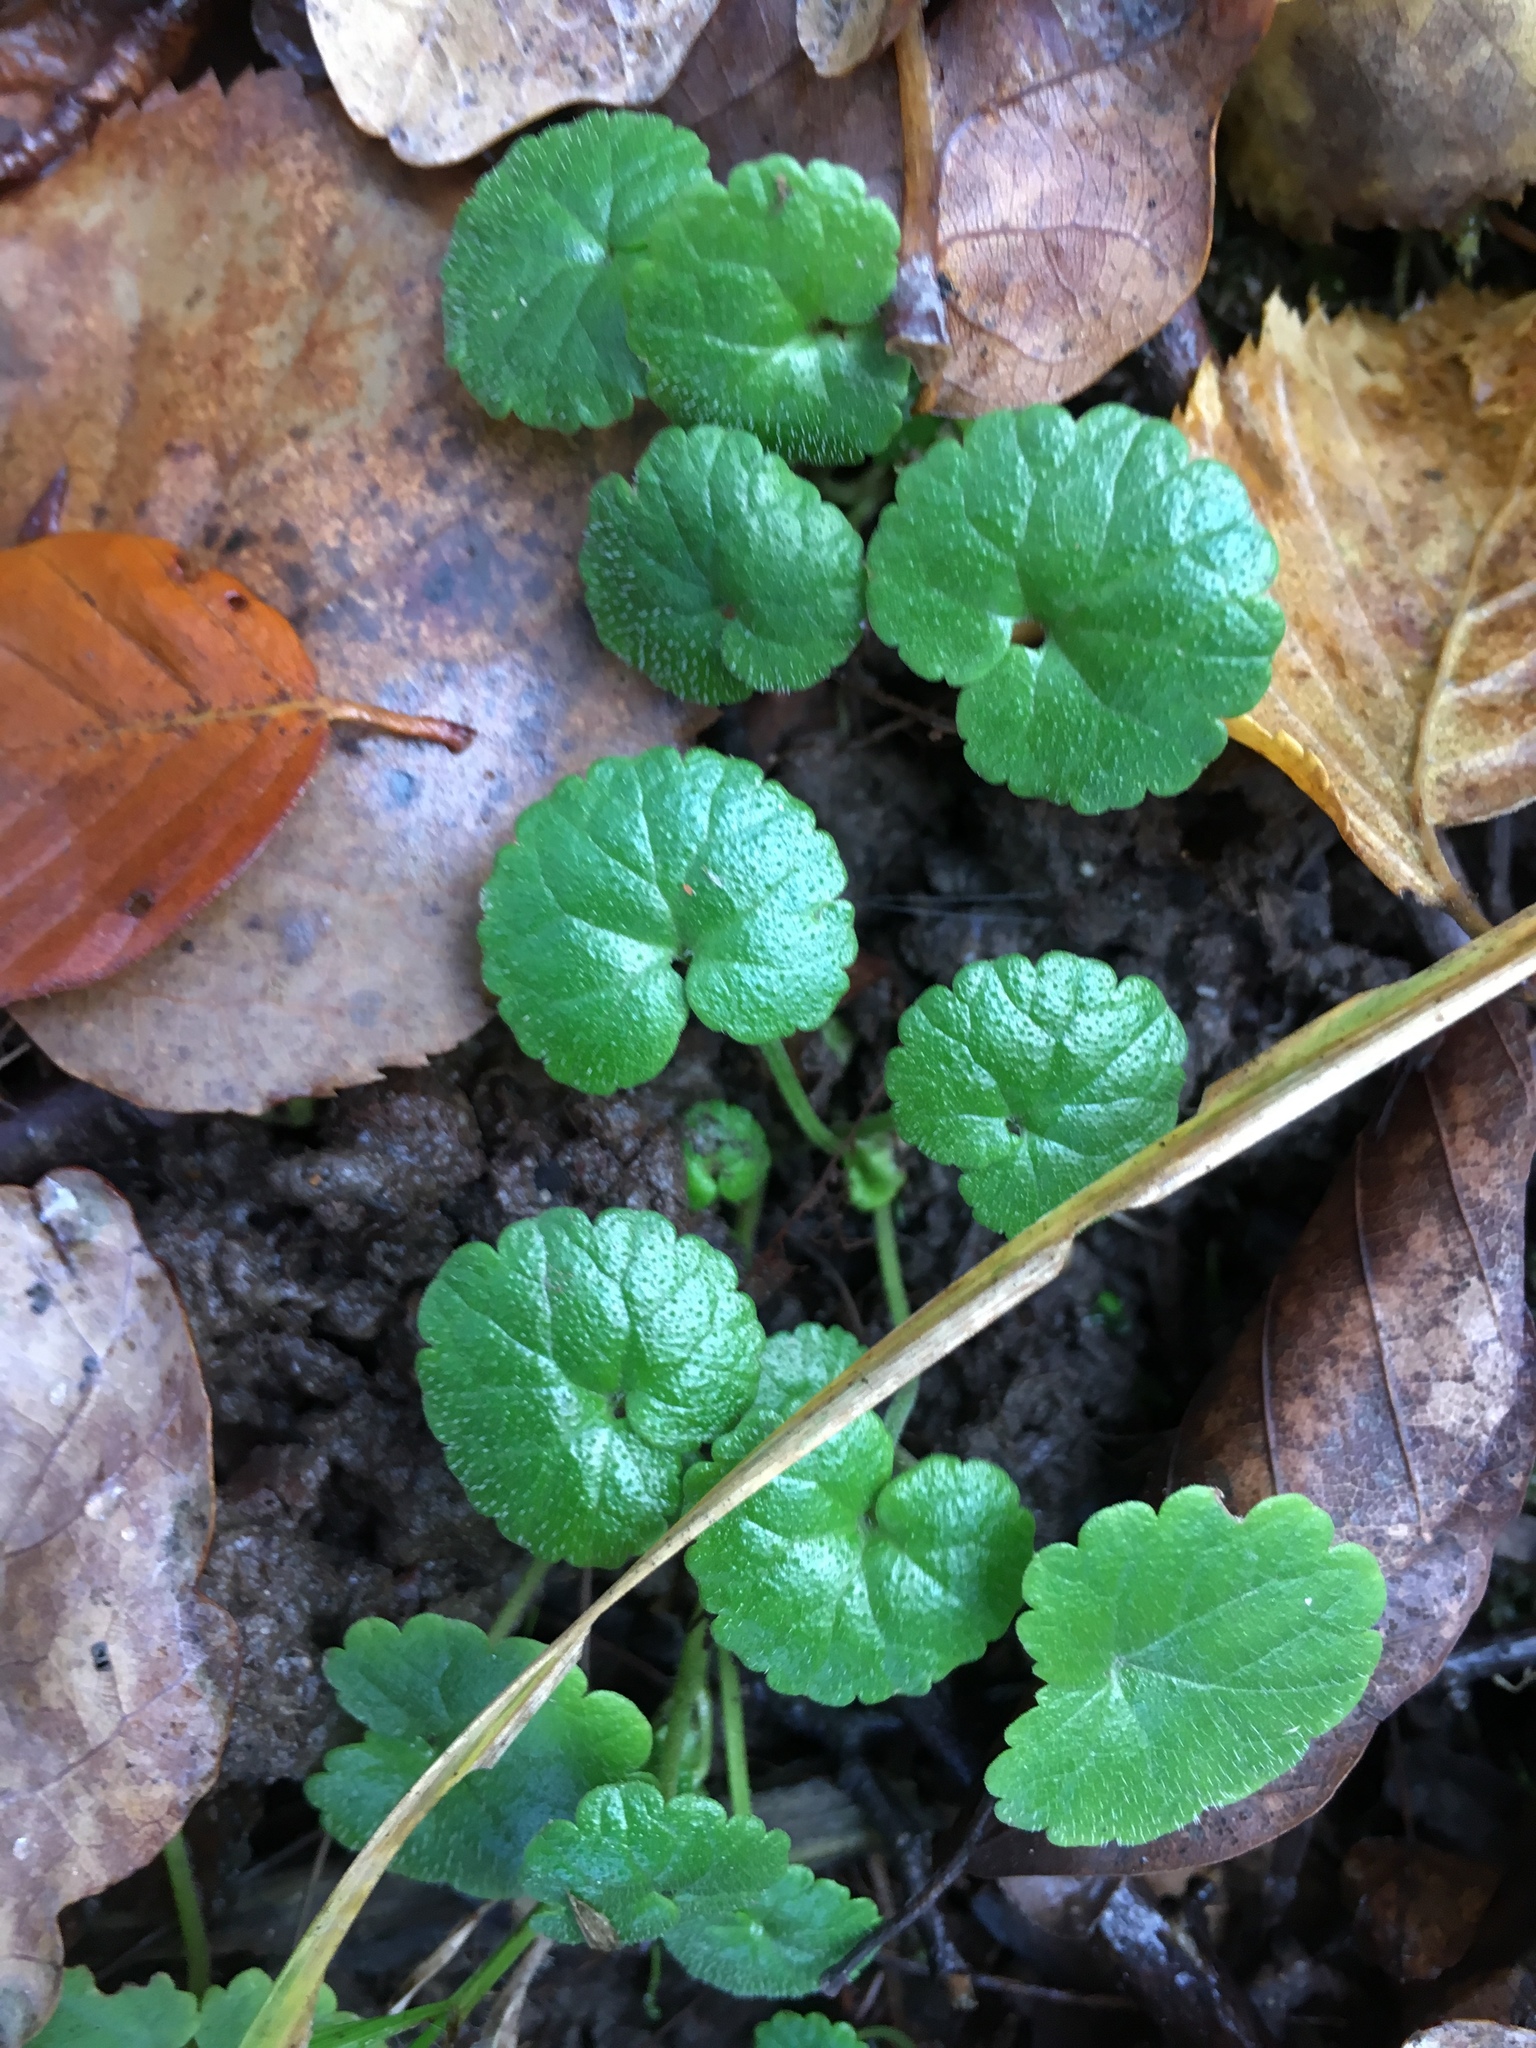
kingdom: Plantae
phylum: Tracheophyta
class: Magnoliopsida
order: Lamiales
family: Lamiaceae
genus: Glechoma
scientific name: Glechoma hederacea
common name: Ground ivy
